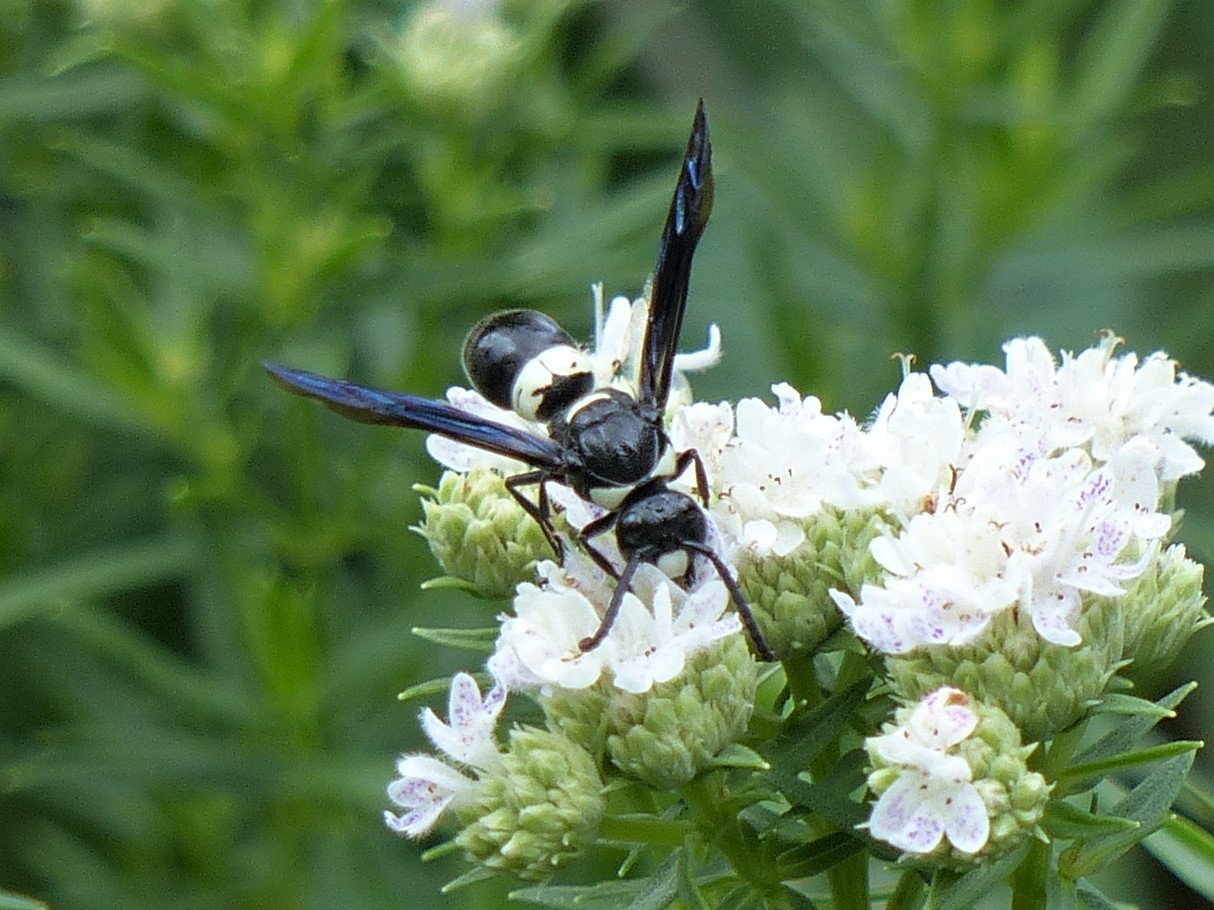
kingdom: Animalia
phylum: Arthropoda
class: Insecta
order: Hymenoptera
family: Eumenidae
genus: Monobia
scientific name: Monobia quadridens
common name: Four-toothed mason wasp
